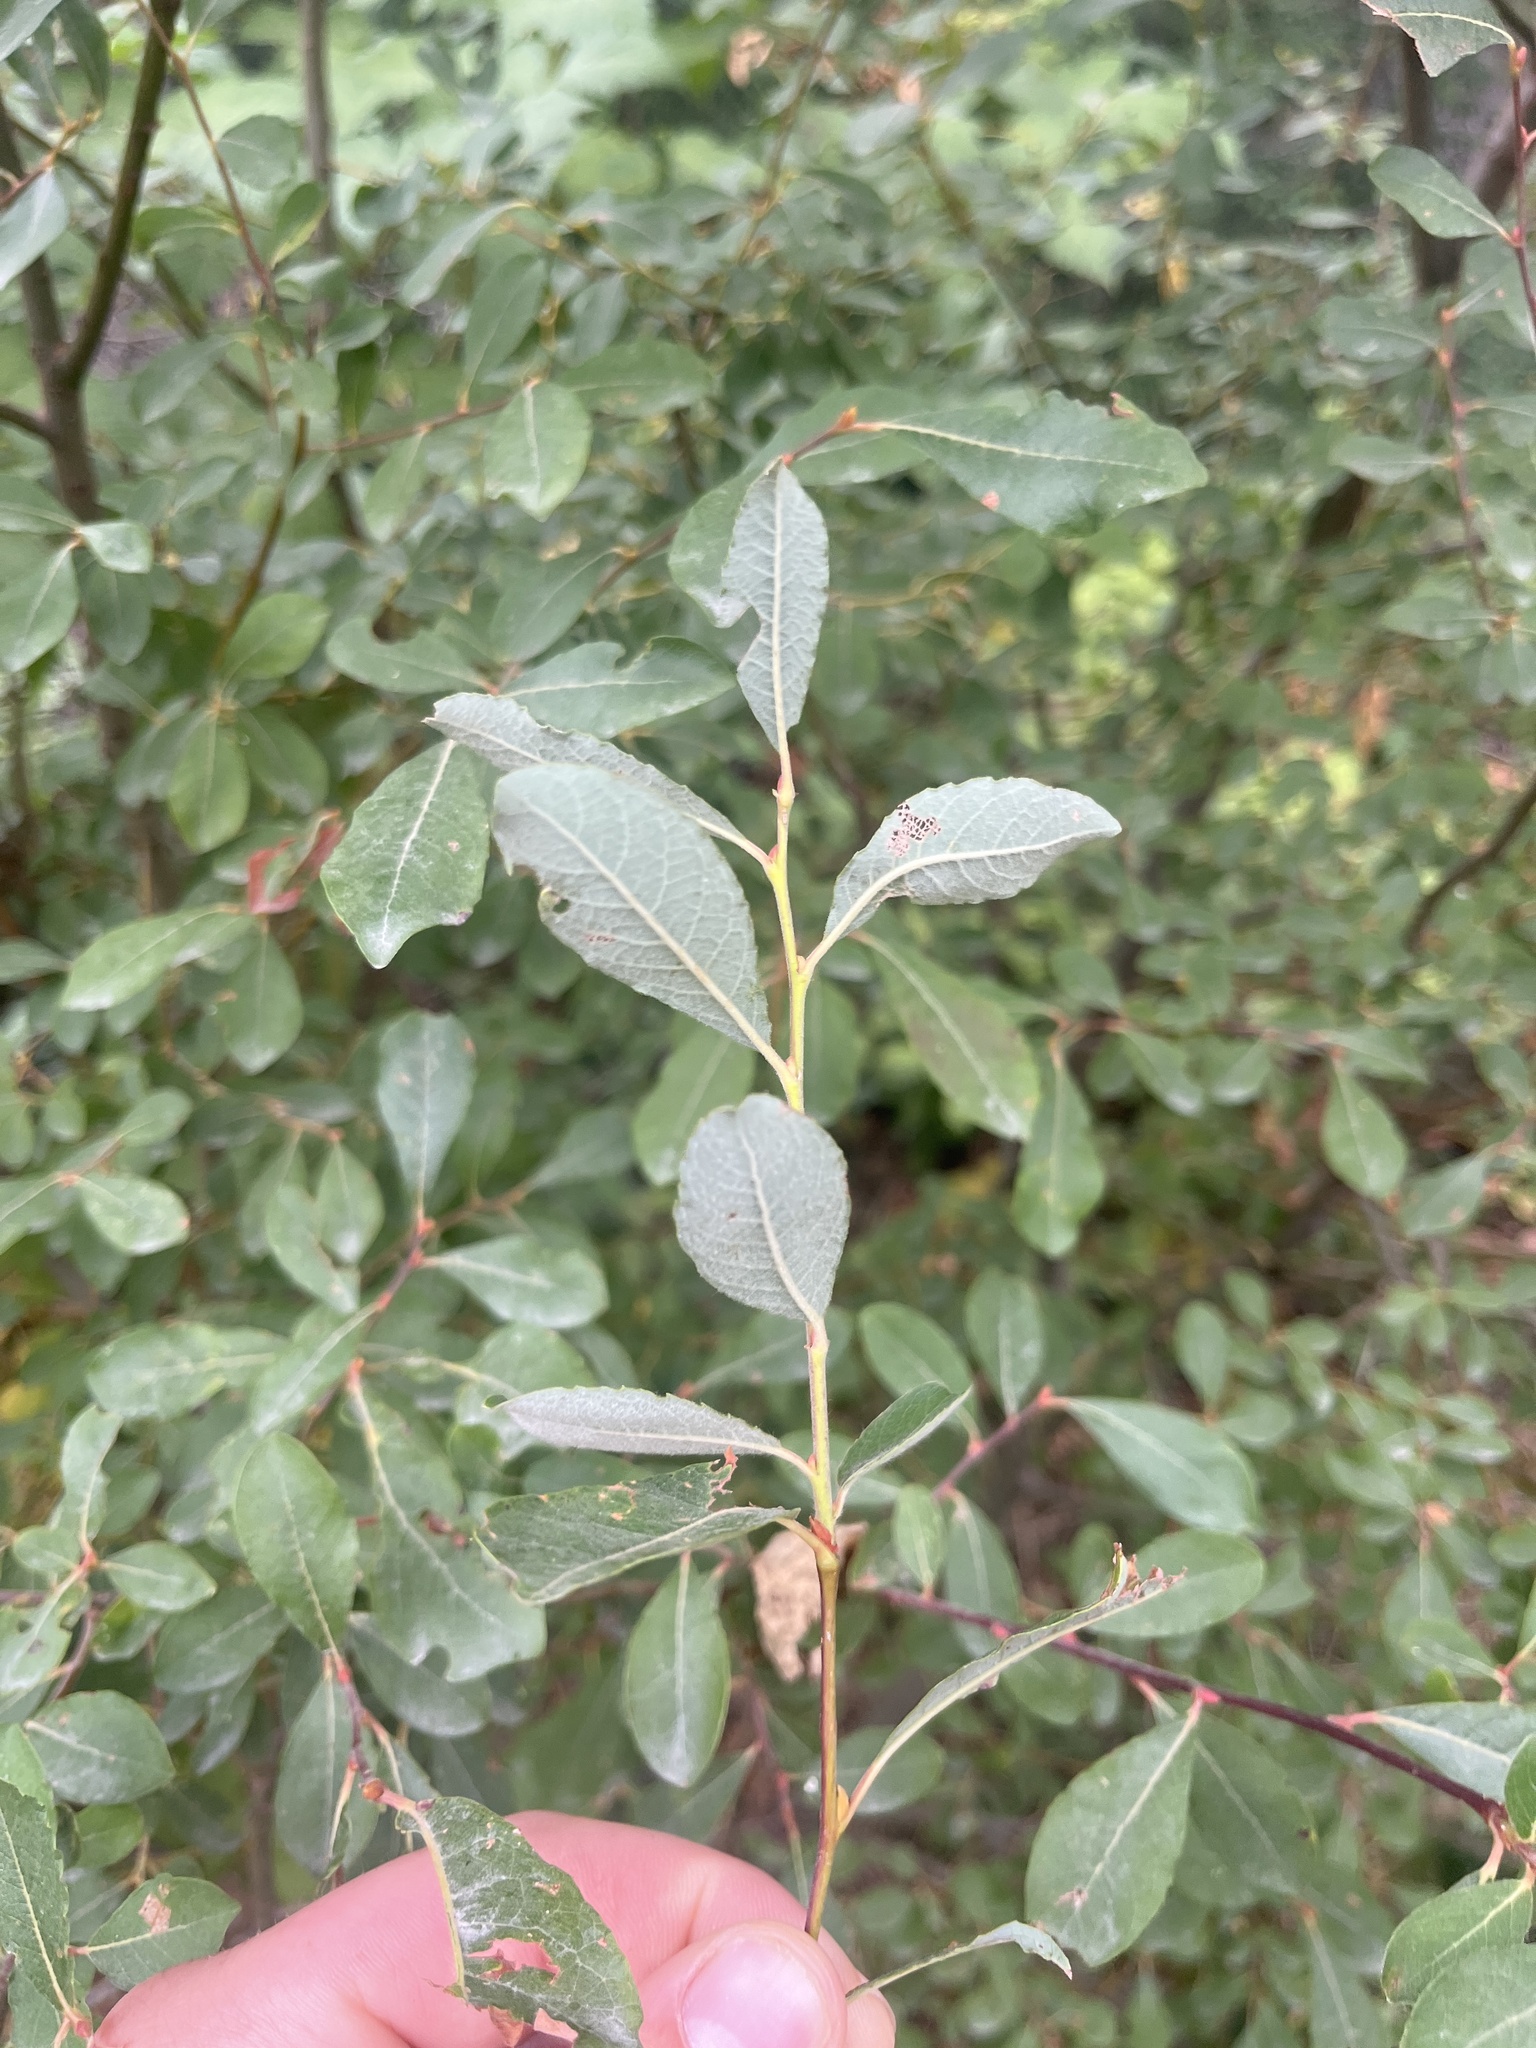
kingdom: Plantae
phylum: Tracheophyta
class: Magnoliopsida
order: Malpighiales
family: Salicaceae
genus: Salix
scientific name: Salix sitchensis
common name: Sitka willow
